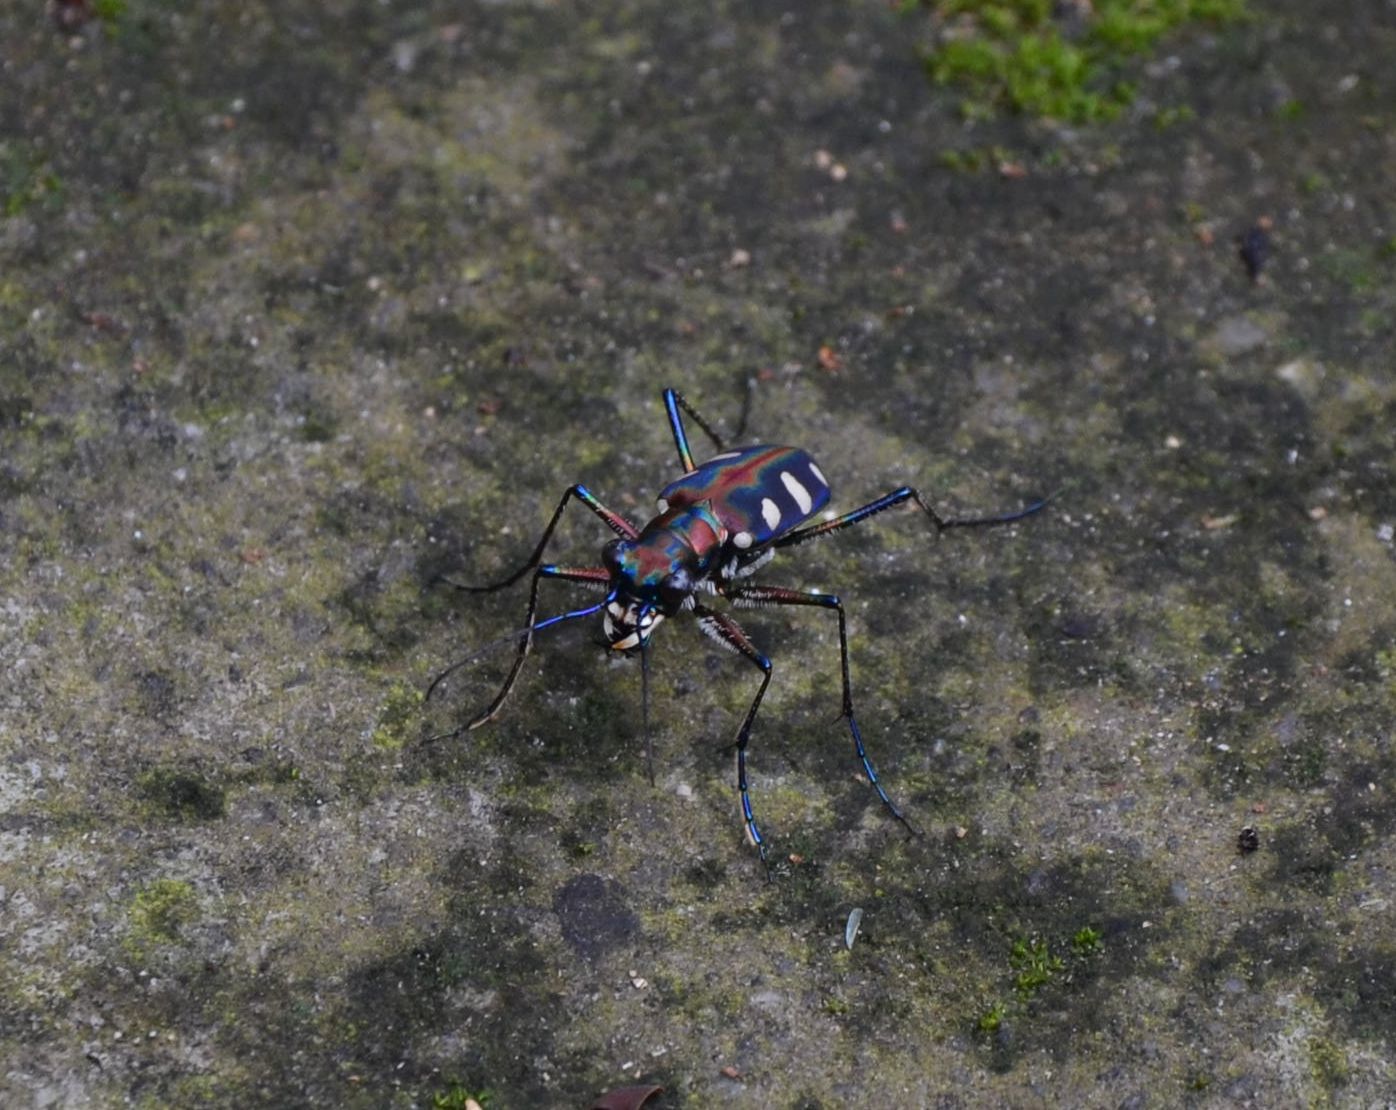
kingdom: Animalia
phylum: Arthropoda
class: Insecta
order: Coleoptera
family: Carabidae
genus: Cicindela
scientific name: Cicindela juxtata
